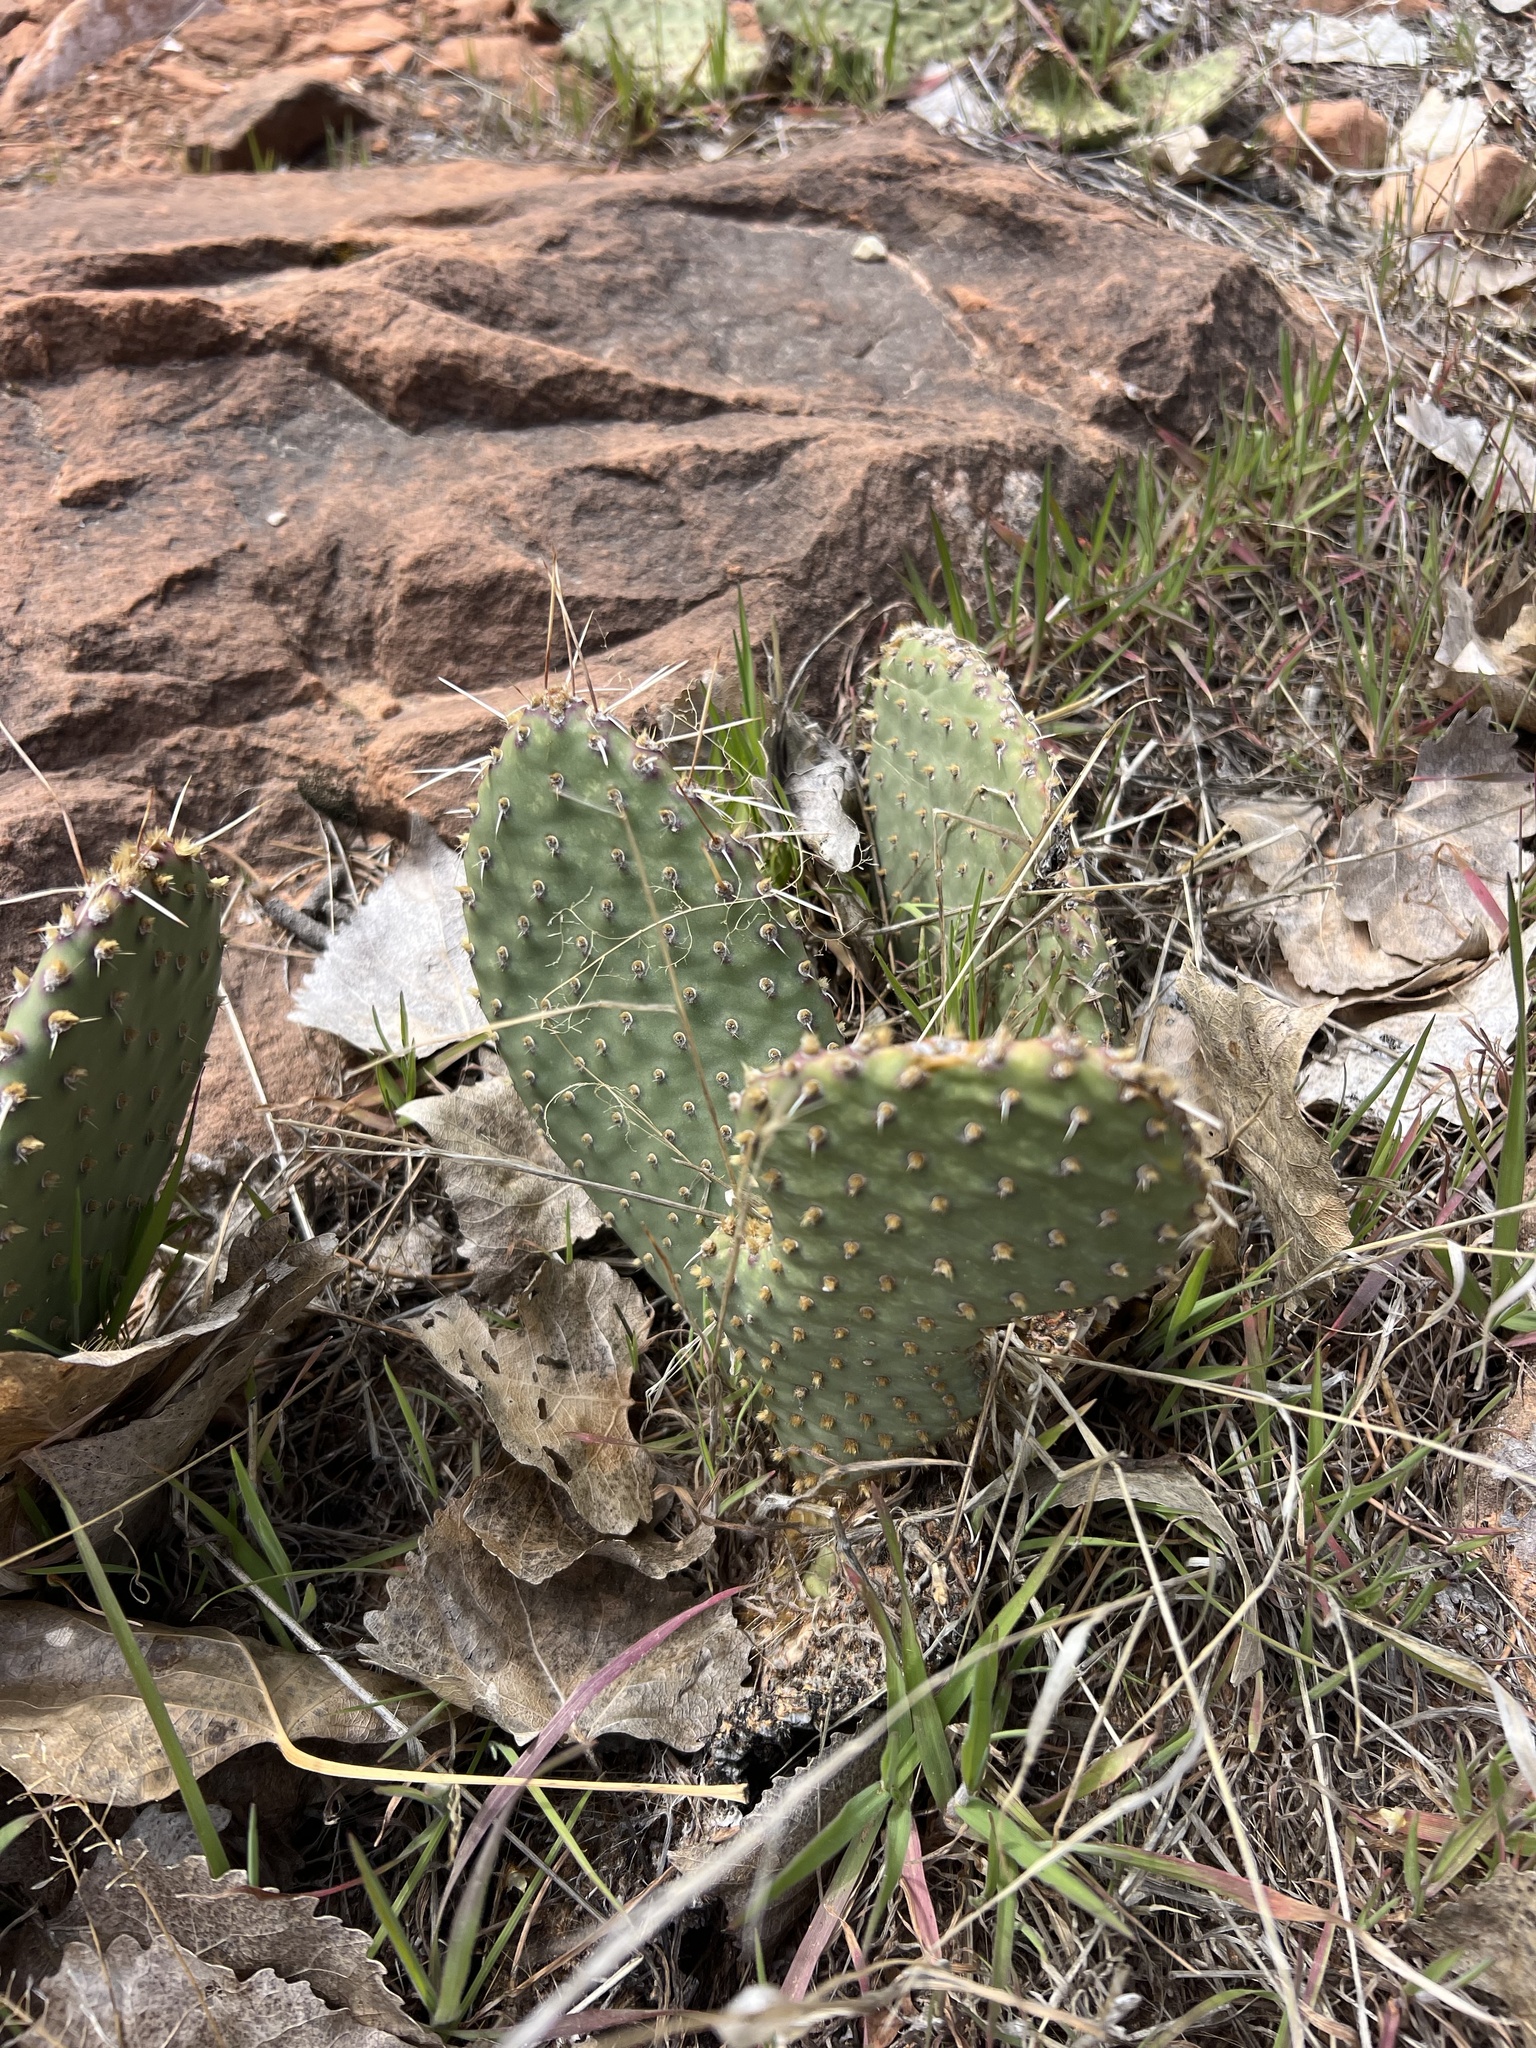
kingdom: Plantae
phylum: Tracheophyta
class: Magnoliopsida
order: Caryophyllales
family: Cactaceae
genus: Opuntia
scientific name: Opuntia aurea
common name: Golden prickly-pear
